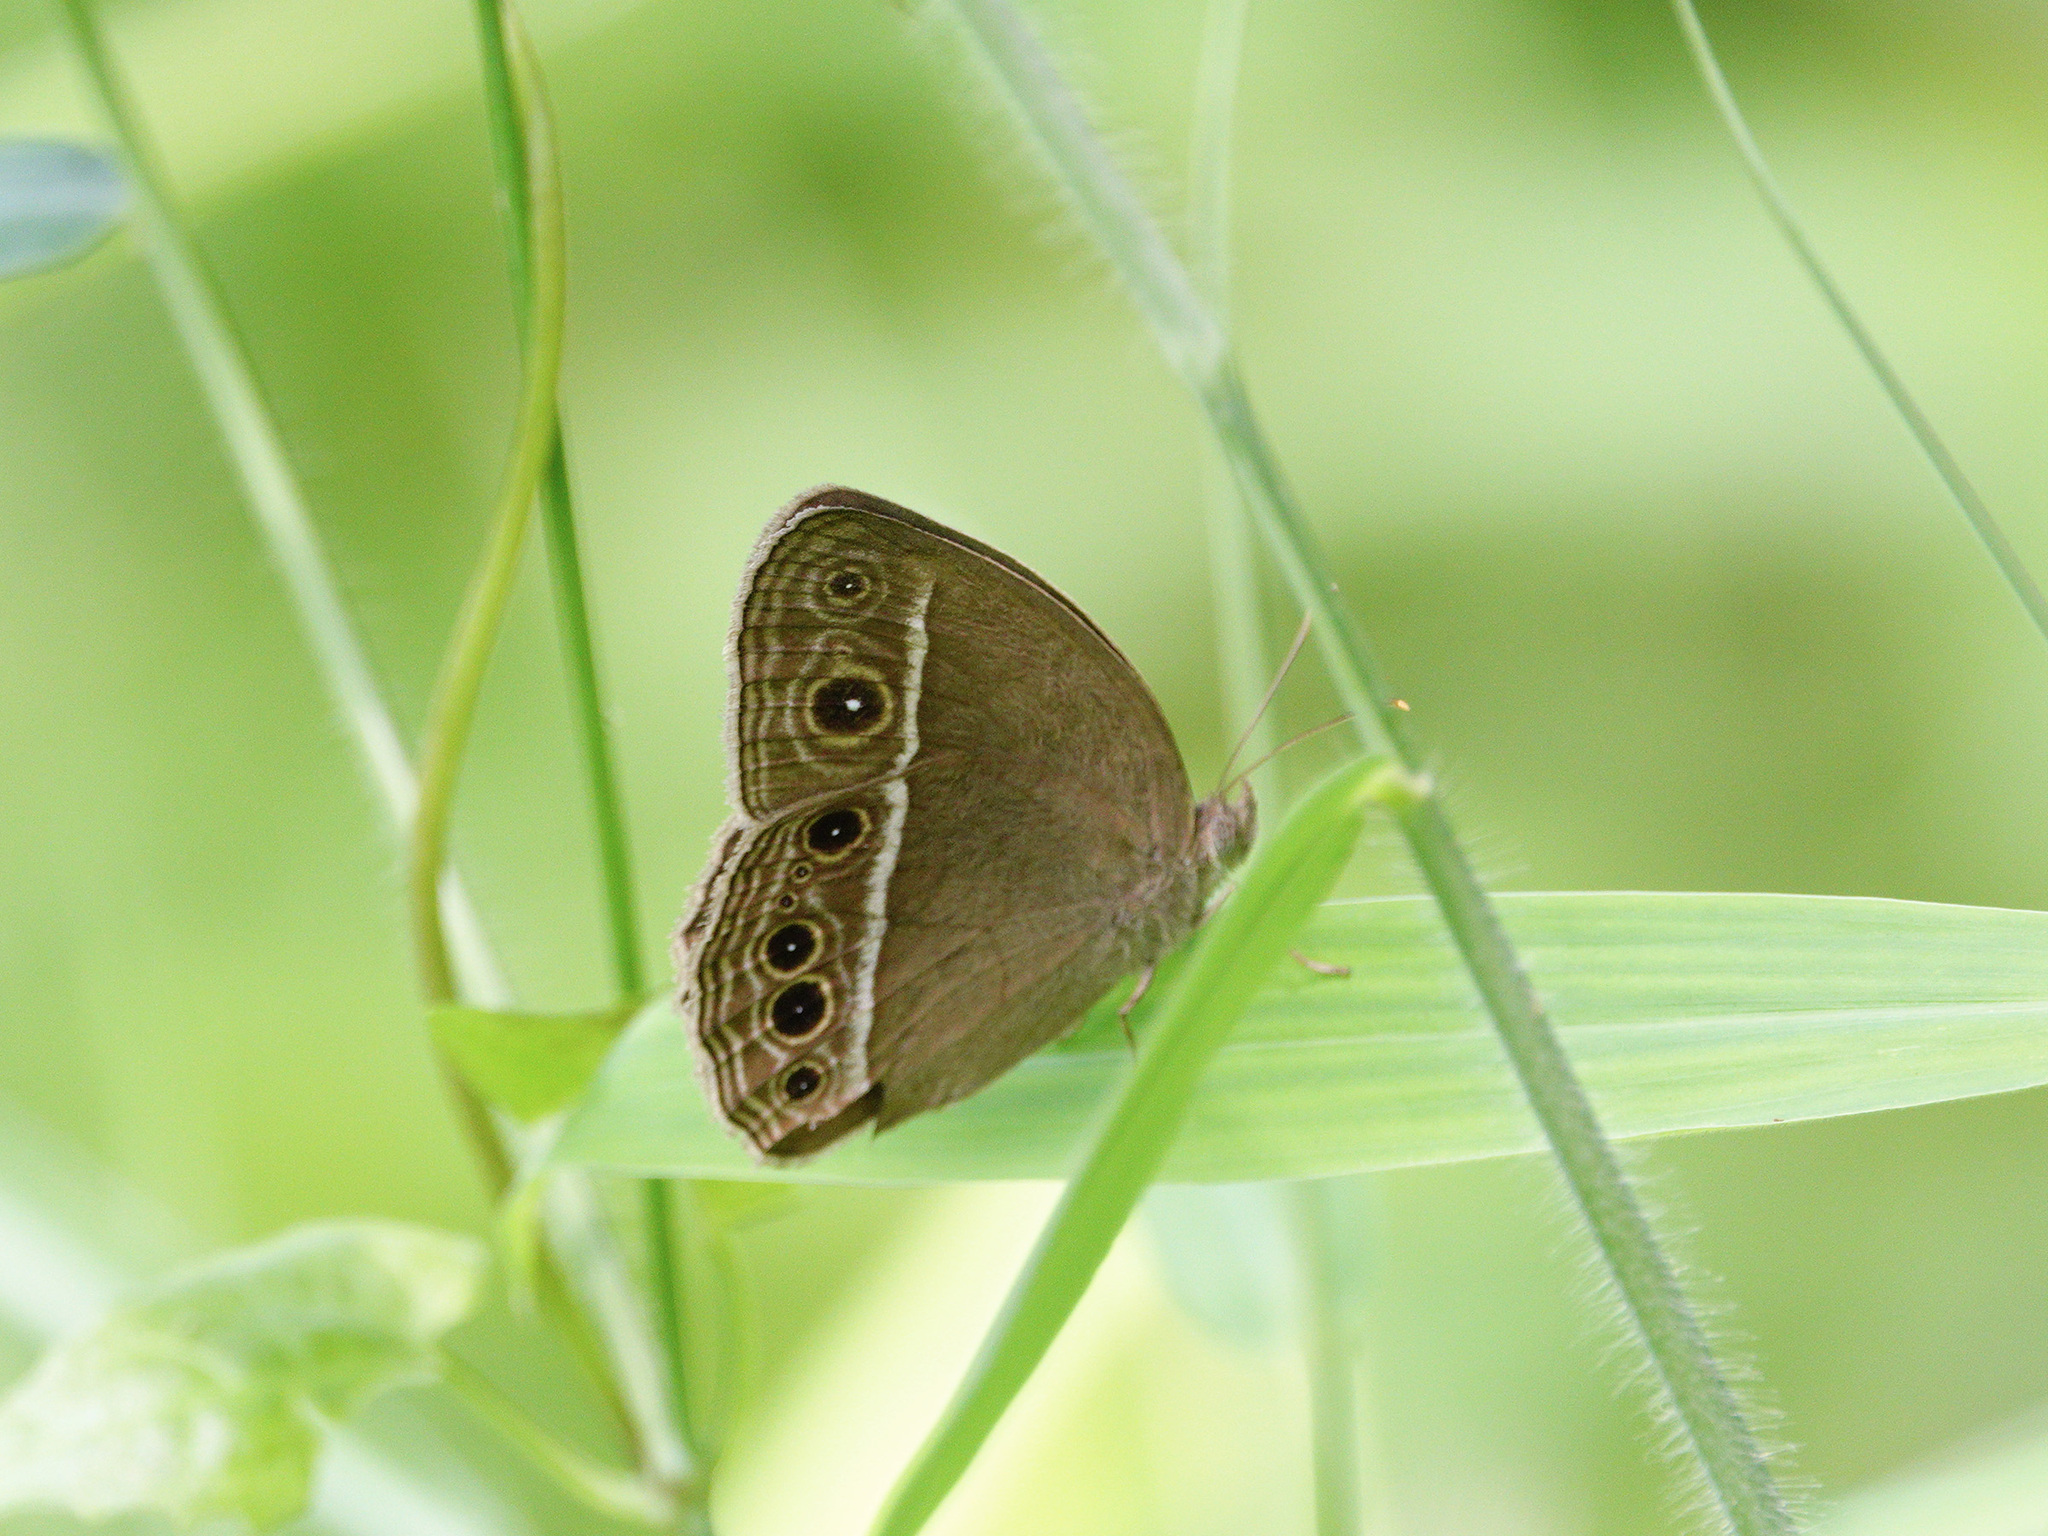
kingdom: Animalia
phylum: Arthropoda
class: Insecta
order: Lepidoptera
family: Nymphalidae
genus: Mycalesis
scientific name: Mycalesis mineus
